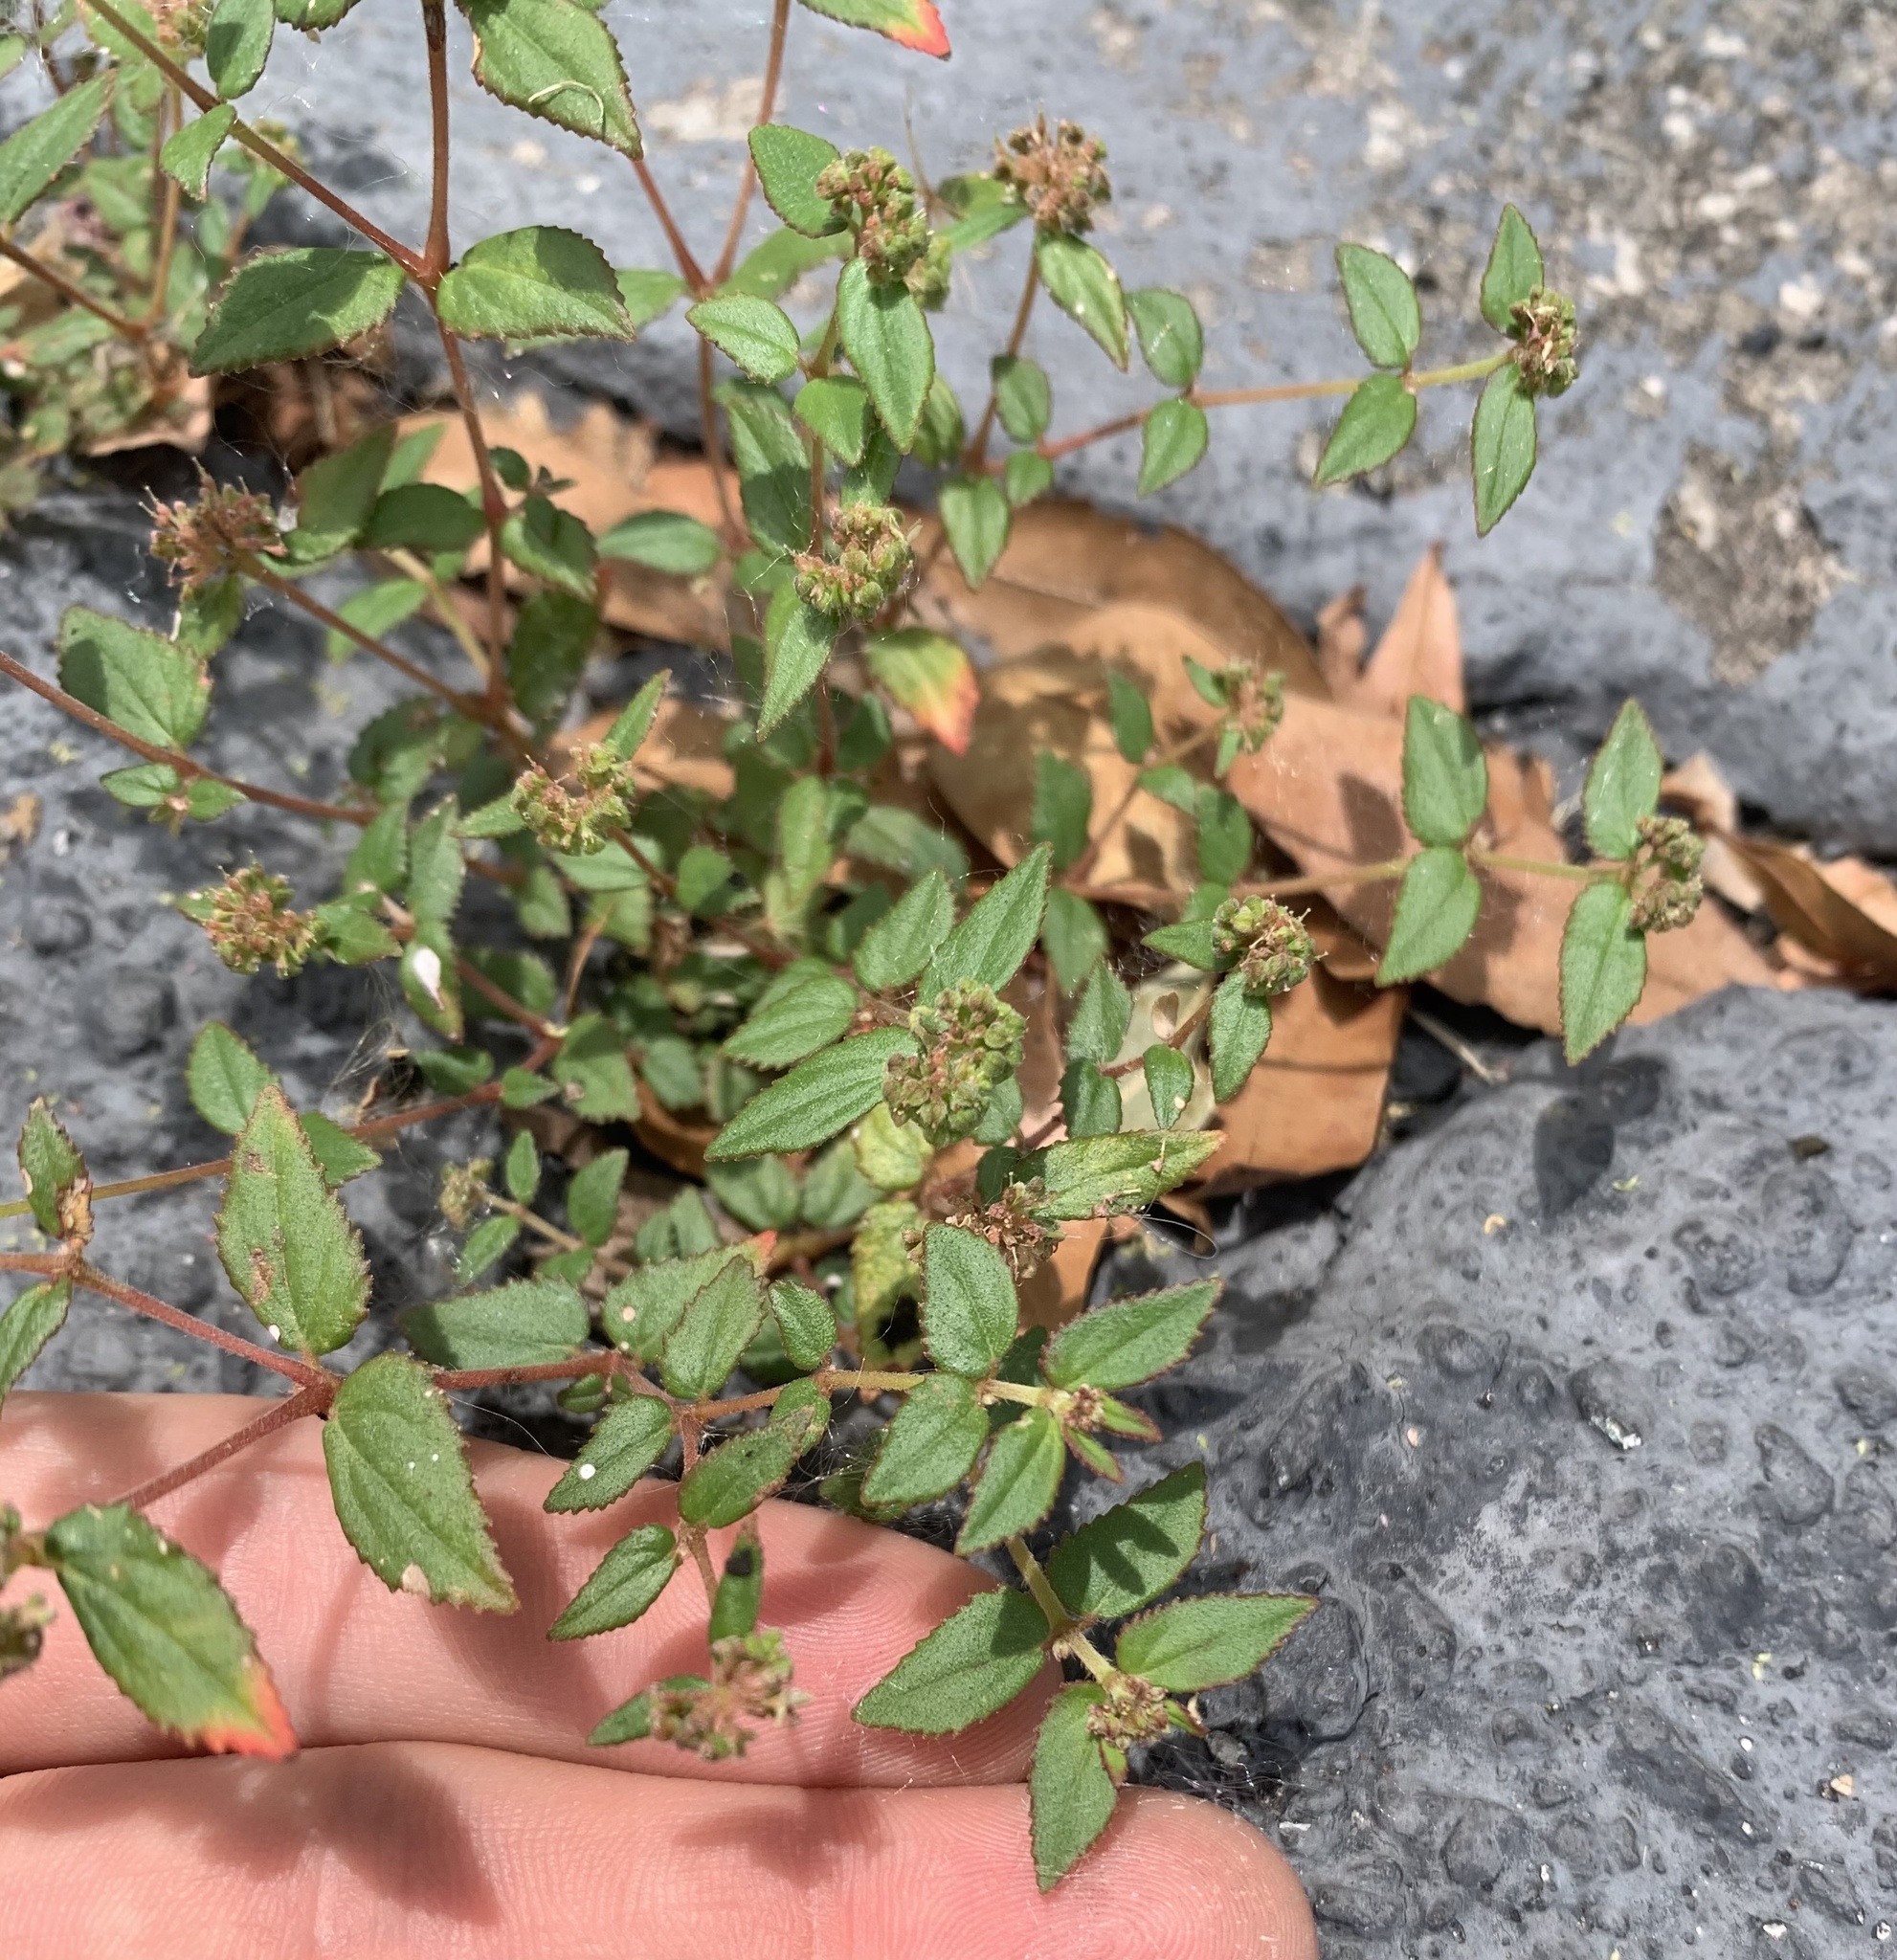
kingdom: Plantae
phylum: Tracheophyta
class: Magnoliopsida
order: Malpighiales
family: Euphorbiaceae
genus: Euphorbia
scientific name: Euphorbia ophthalmica
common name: Florida hammock sandmat
